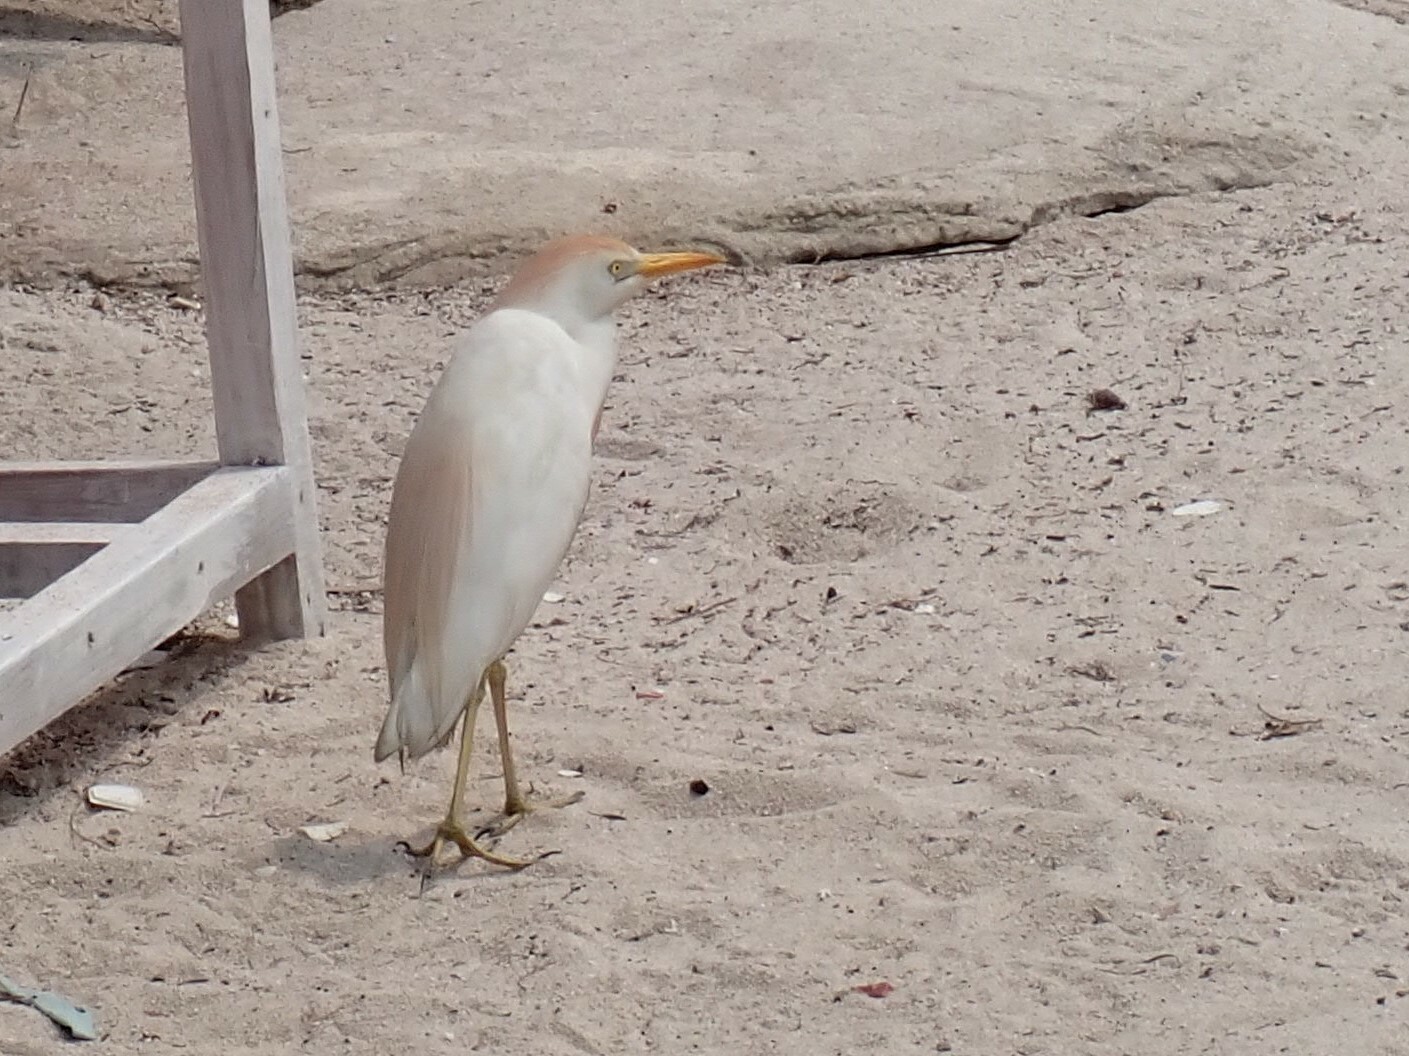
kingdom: Animalia
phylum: Chordata
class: Aves
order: Pelecaniformes
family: Ardeidae
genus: Bubulcus
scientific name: Bubulcus ibis
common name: Cattle egret
